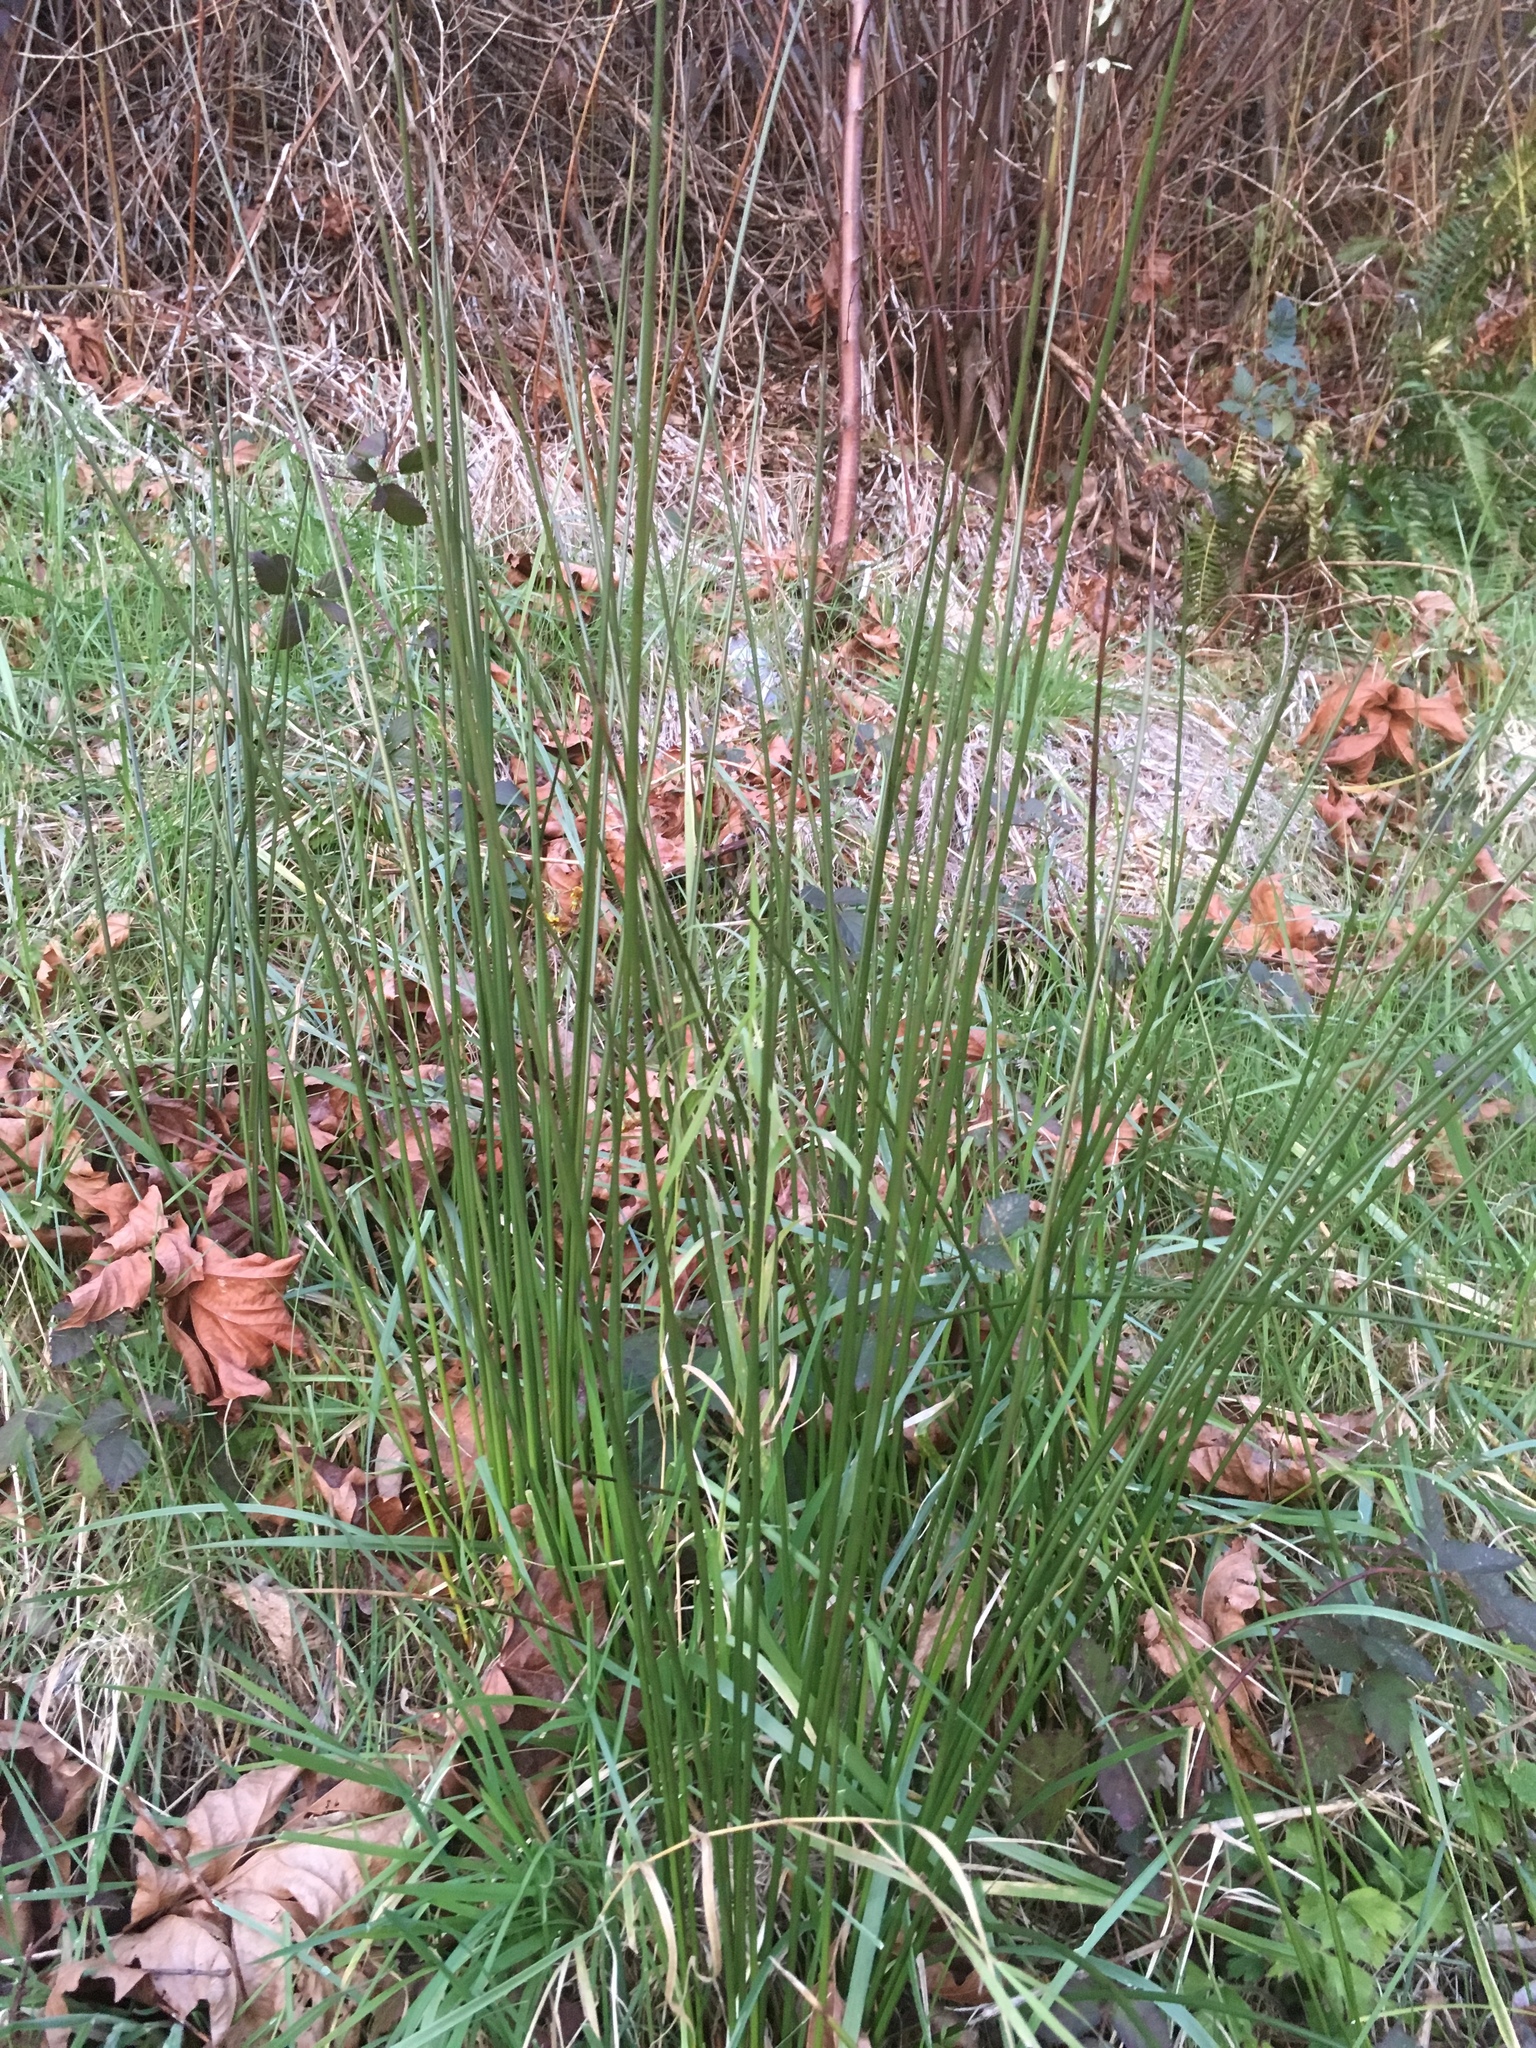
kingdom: Plantae
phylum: Tracheophyta
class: Liliopsida
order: Poales
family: Juncaceae
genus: Juncus
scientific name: Juncus effusus
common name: Soft rush
